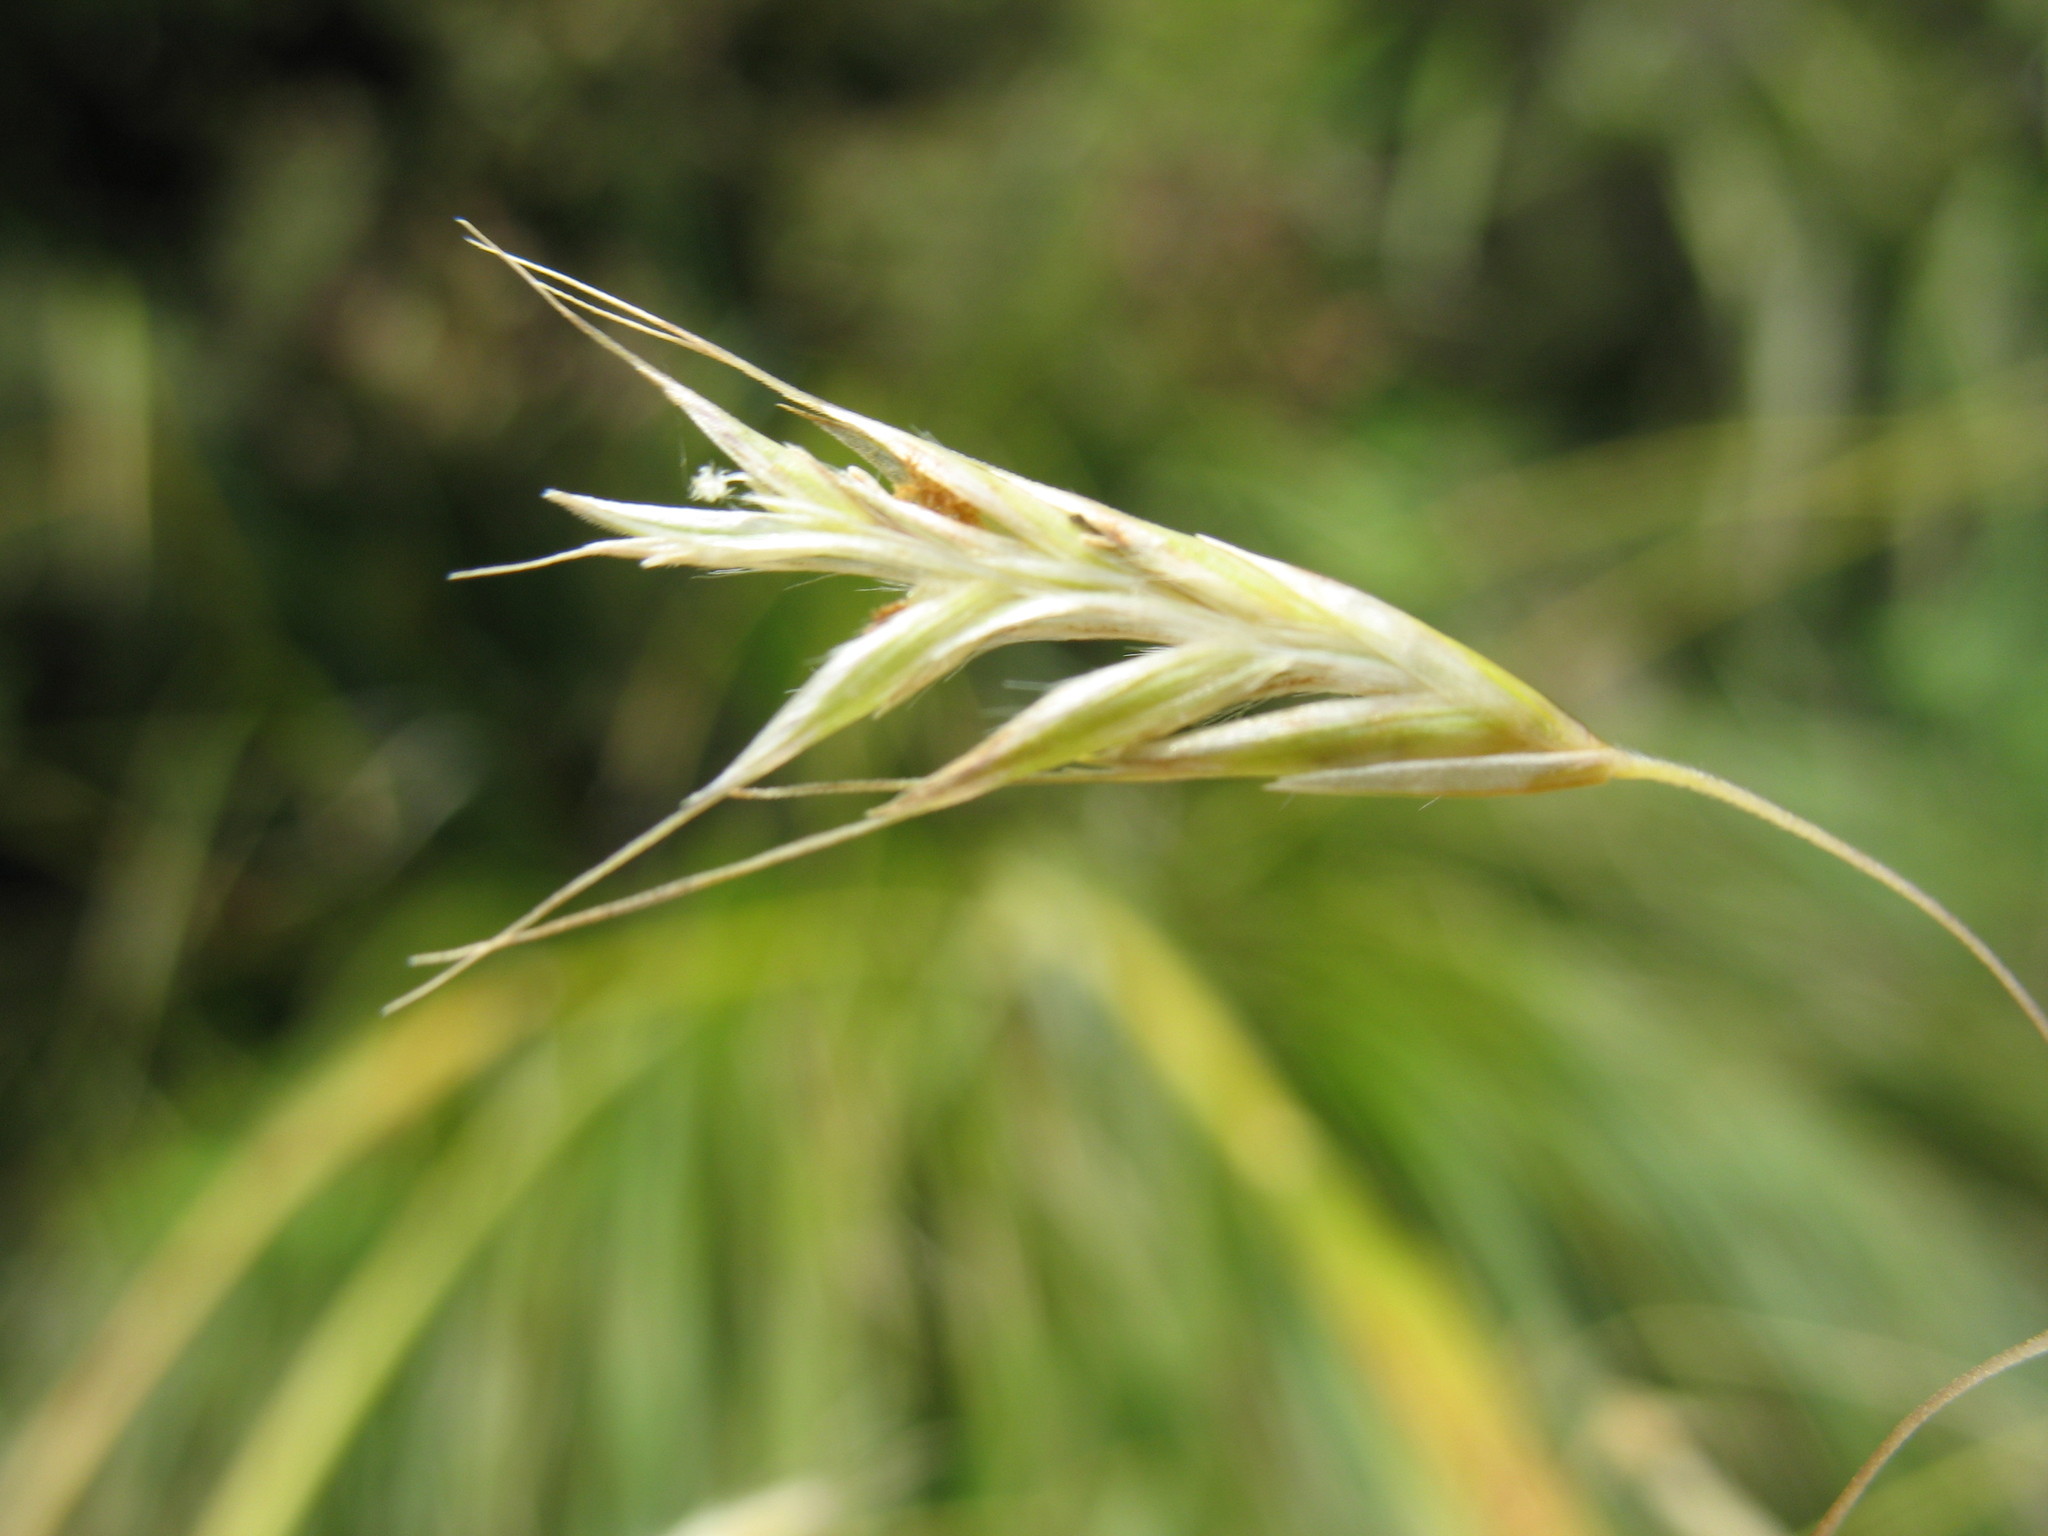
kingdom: Plantae
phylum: Tracheophyta
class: Liliopsida
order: Poales
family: Poaceae
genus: Chionochloa
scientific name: Chionochloa conspicua
